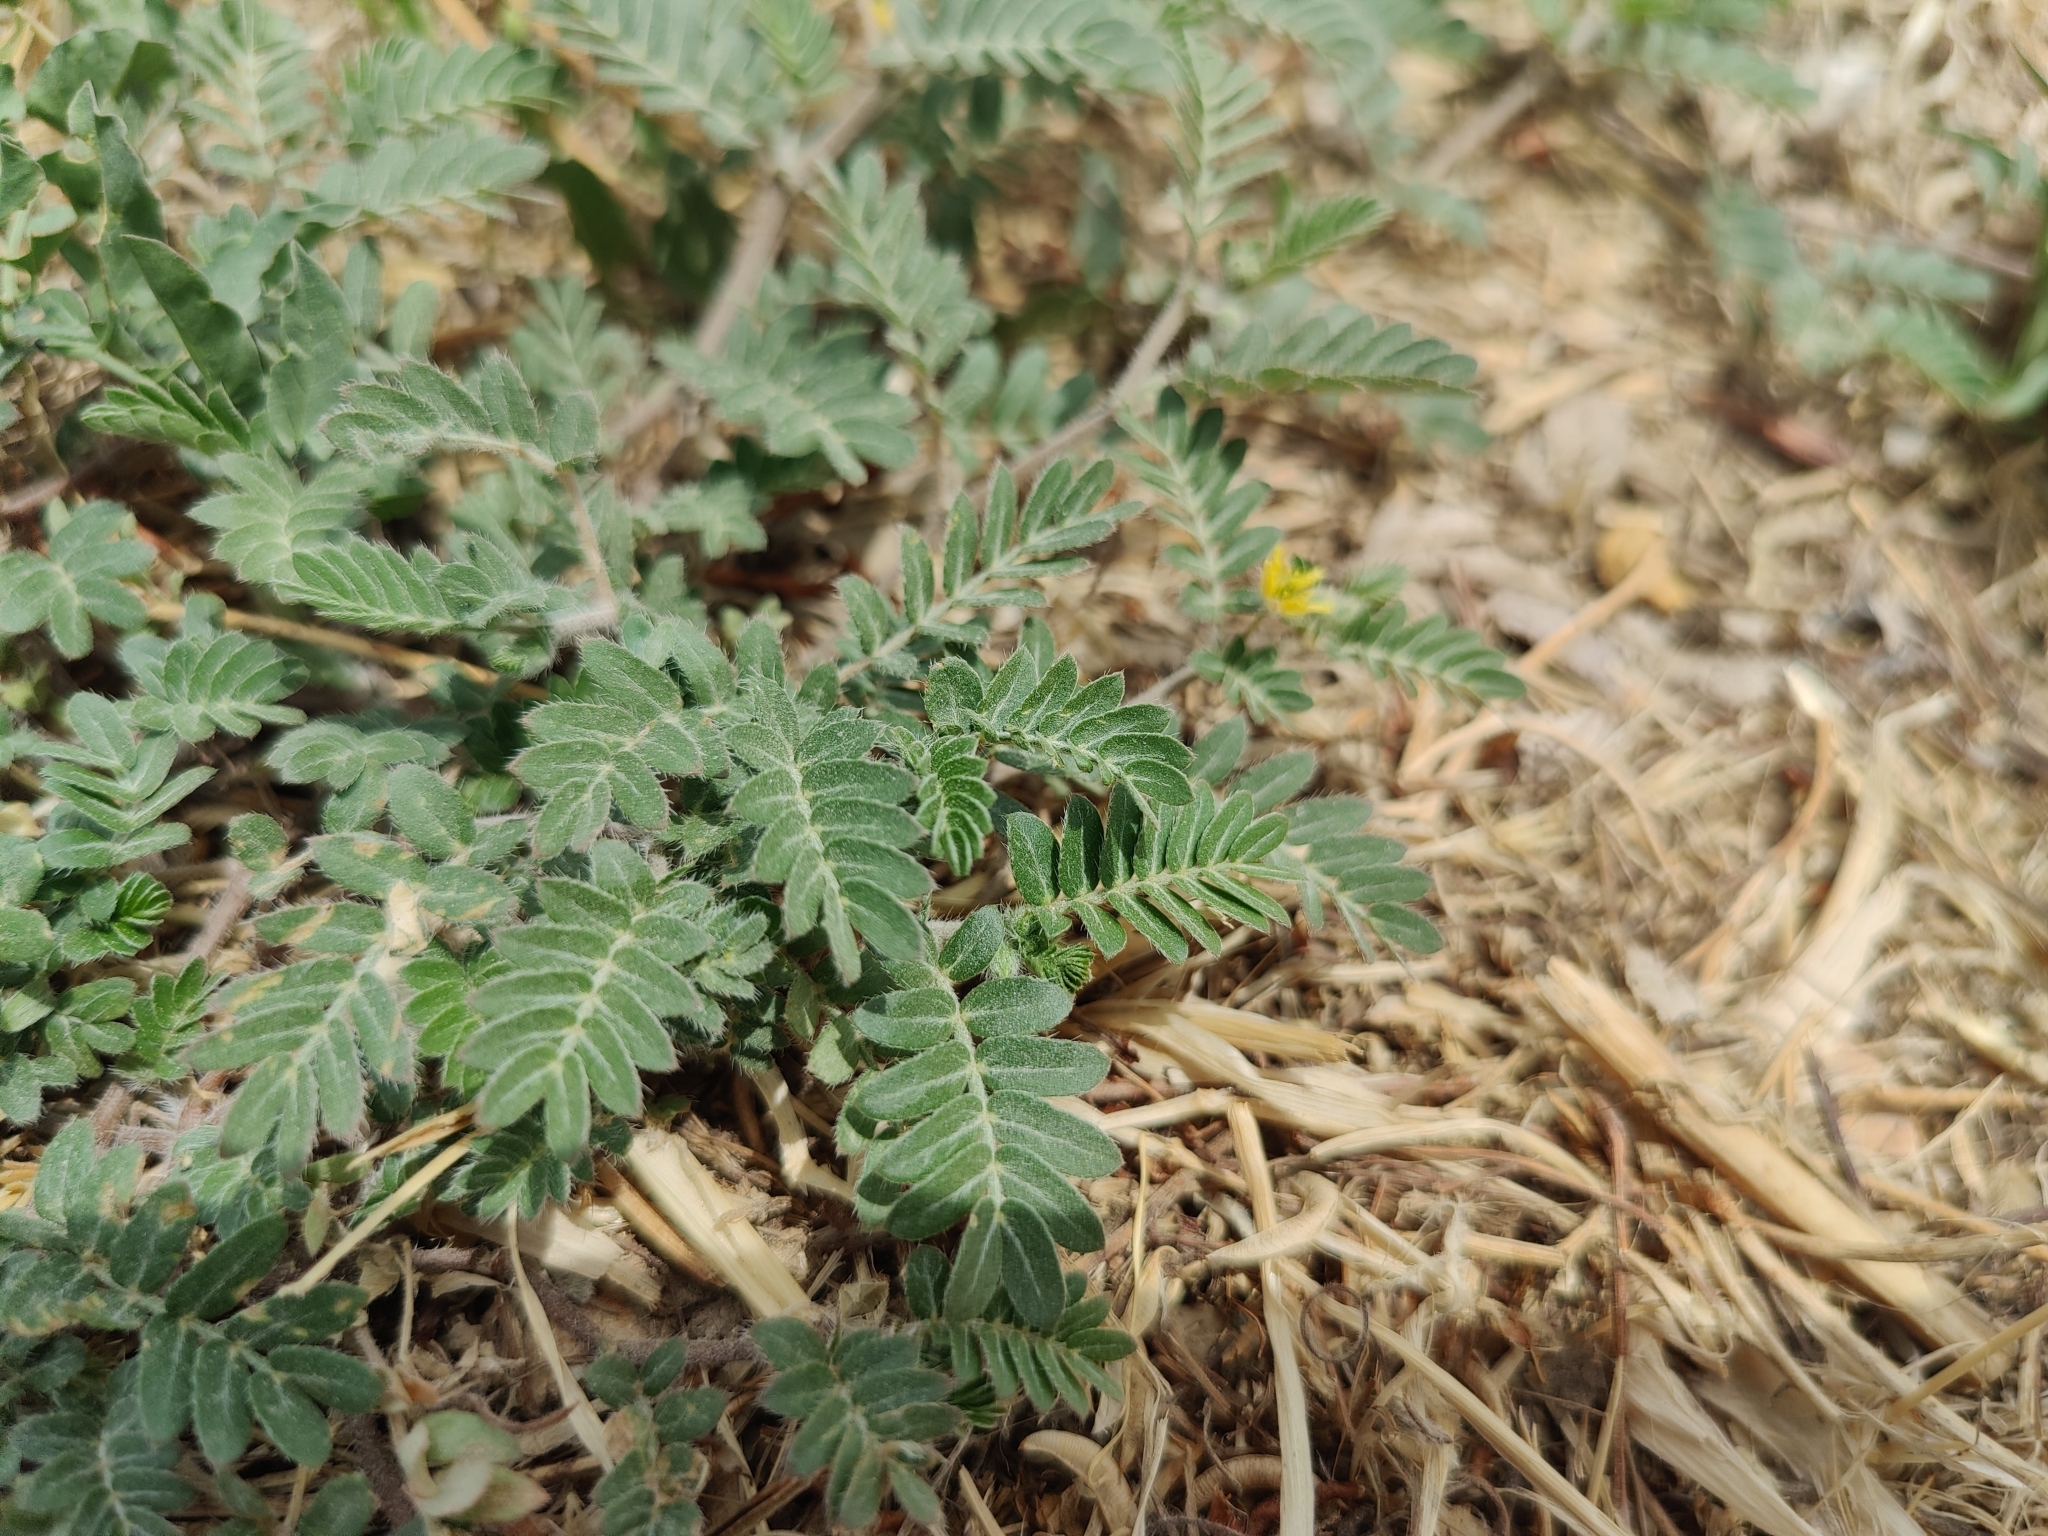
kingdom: Plantae
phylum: Tracheophyta
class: Magnoliopsida
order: Zygophyllales
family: Zygophyllaceae
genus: Tribulus
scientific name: Tribulus terrestris
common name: Puncturevine
